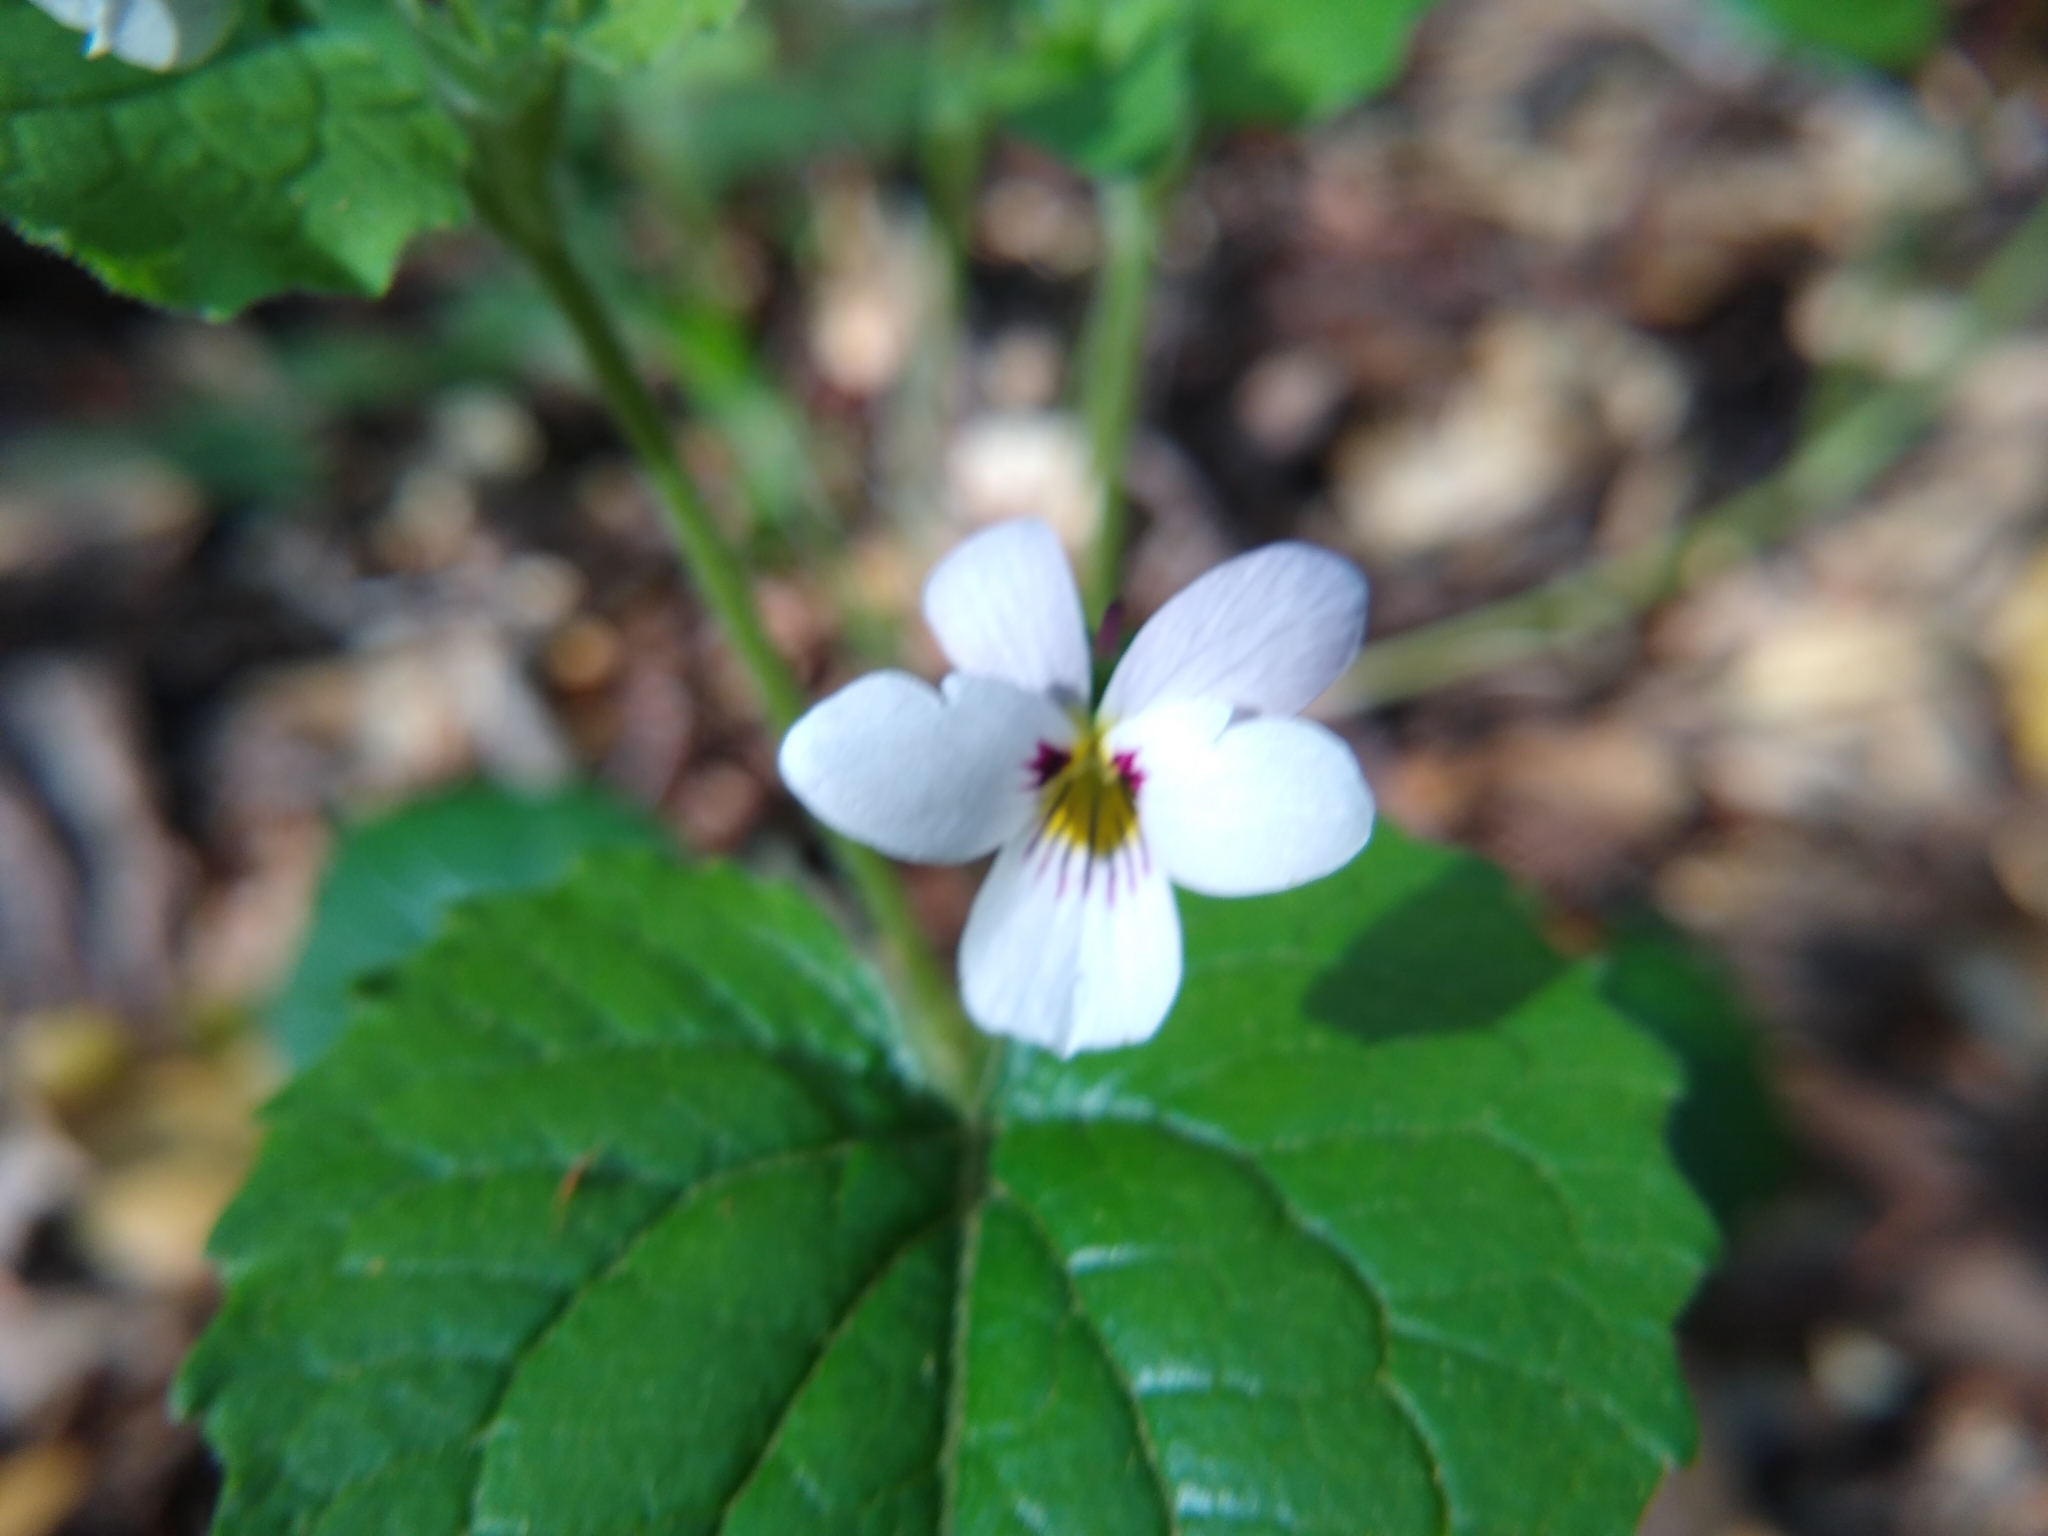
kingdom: Plantae
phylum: Tracheophyta
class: Magnoliopsida
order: Malpighiales
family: Violaceae
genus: Viola
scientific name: Viola ocellata
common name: Western heart's ease
